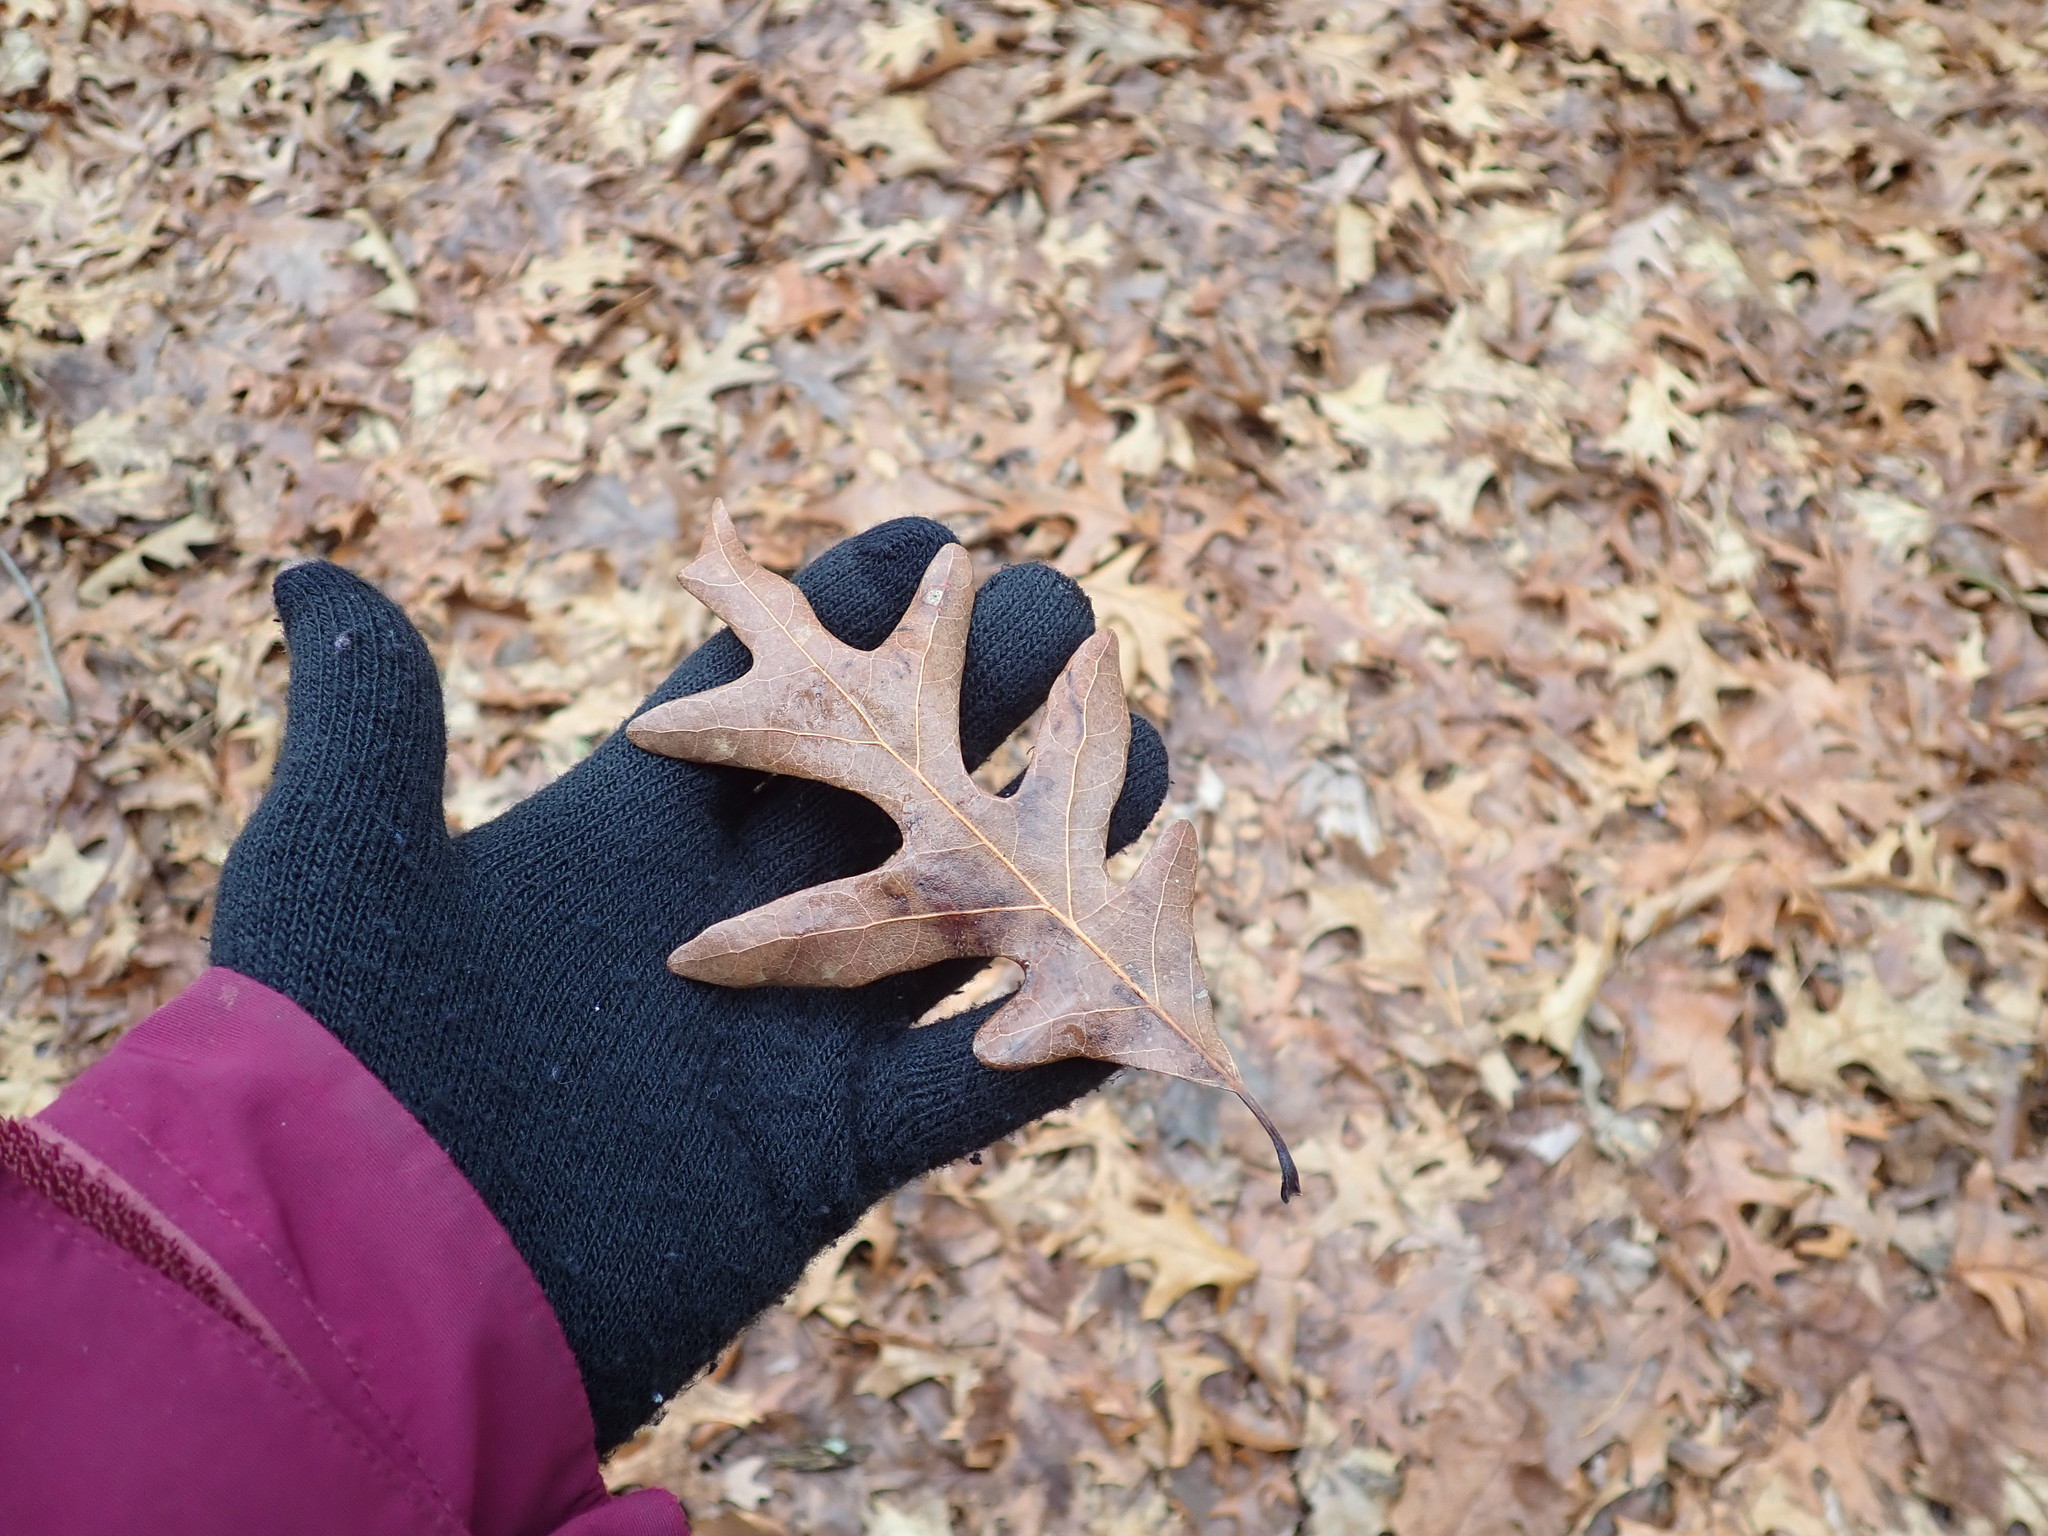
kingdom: Plantae
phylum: Tracheophyta
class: Magnoliopsida
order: Fagales
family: Fagaceae
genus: Quercus
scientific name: Quercus alba
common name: White oak
